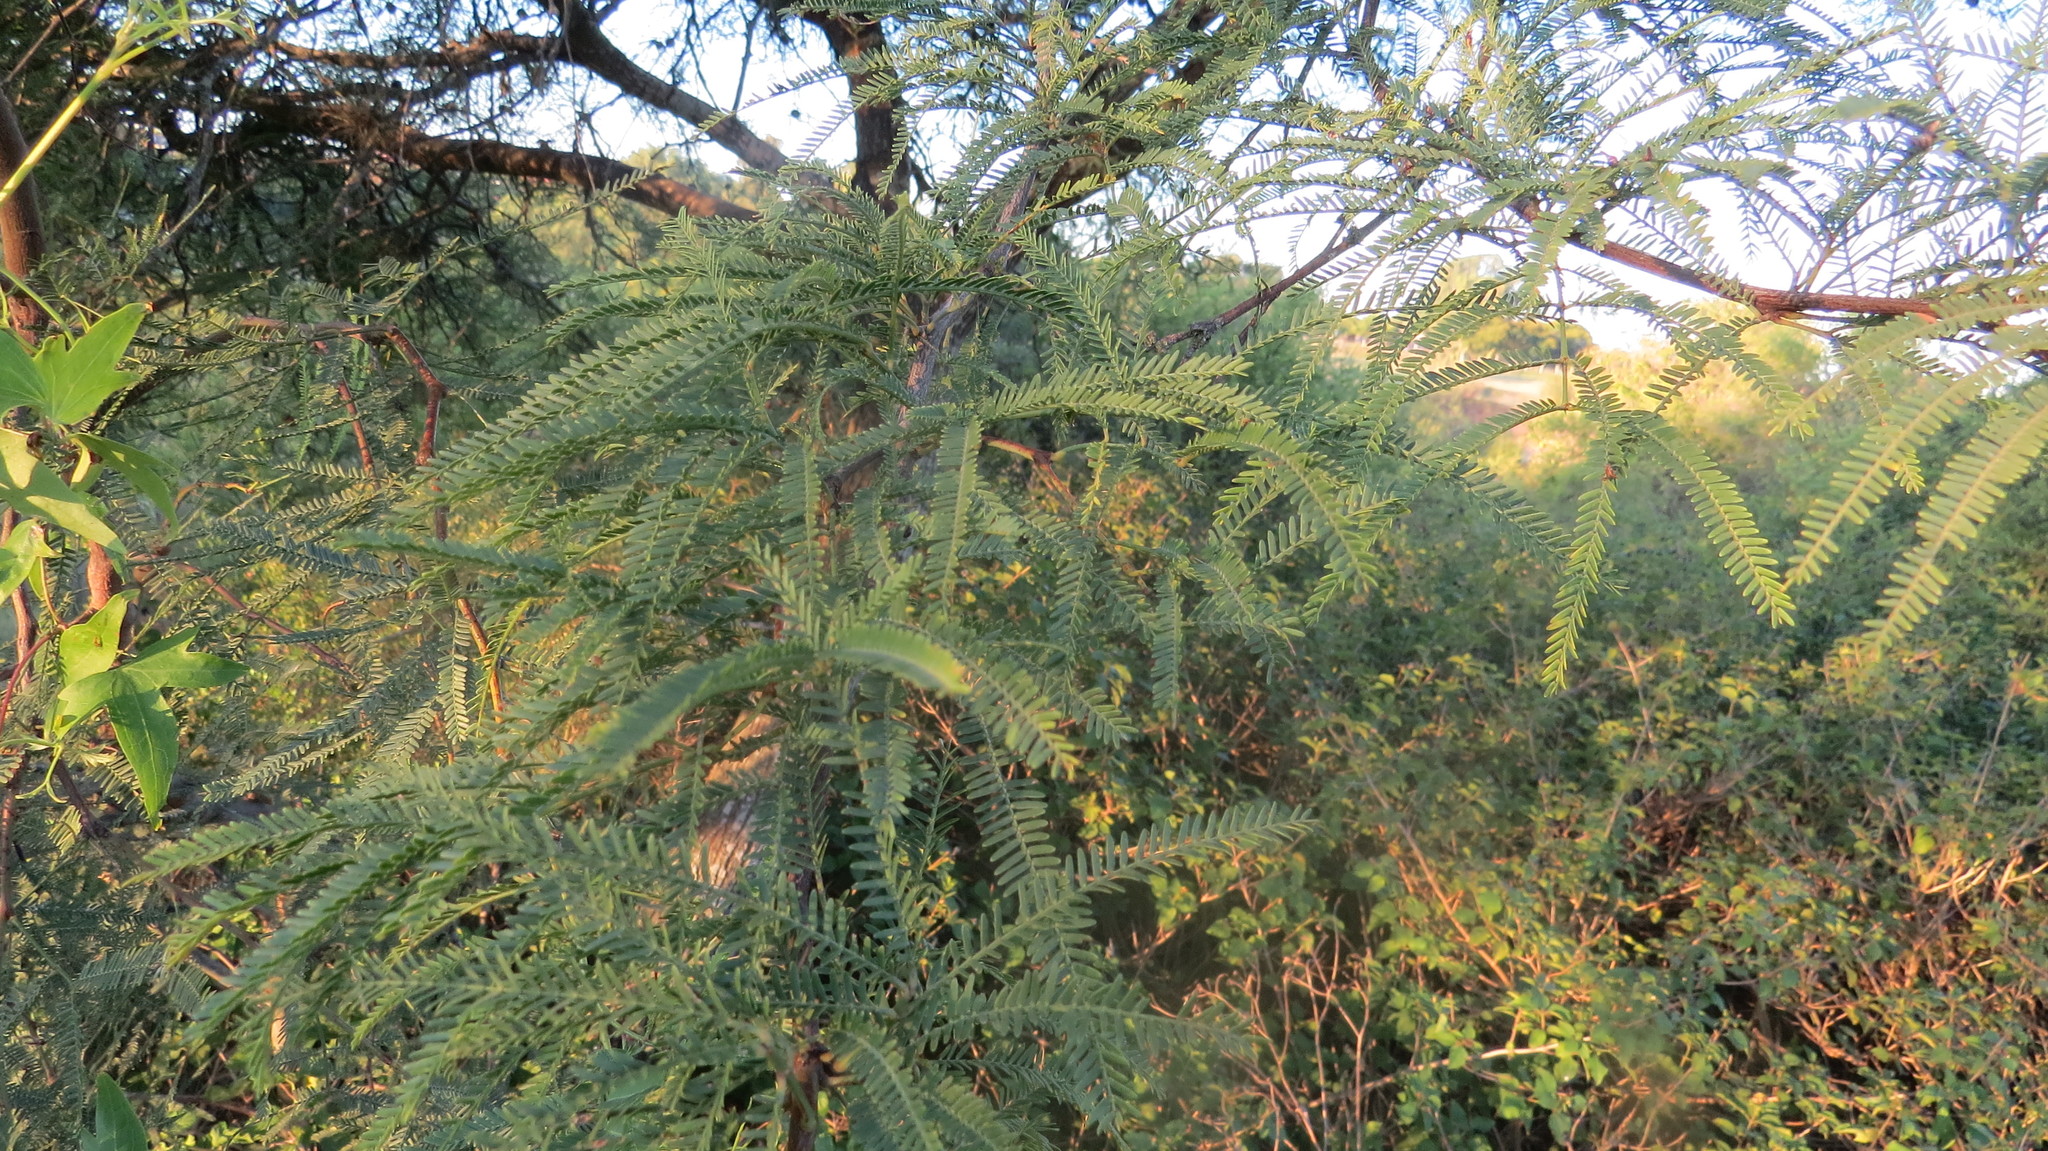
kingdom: Plantae
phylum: Tracheophyta
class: Magnoliopsida
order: Fabales
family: Fabaceae
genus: Prosopis
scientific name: Prosopis alba
